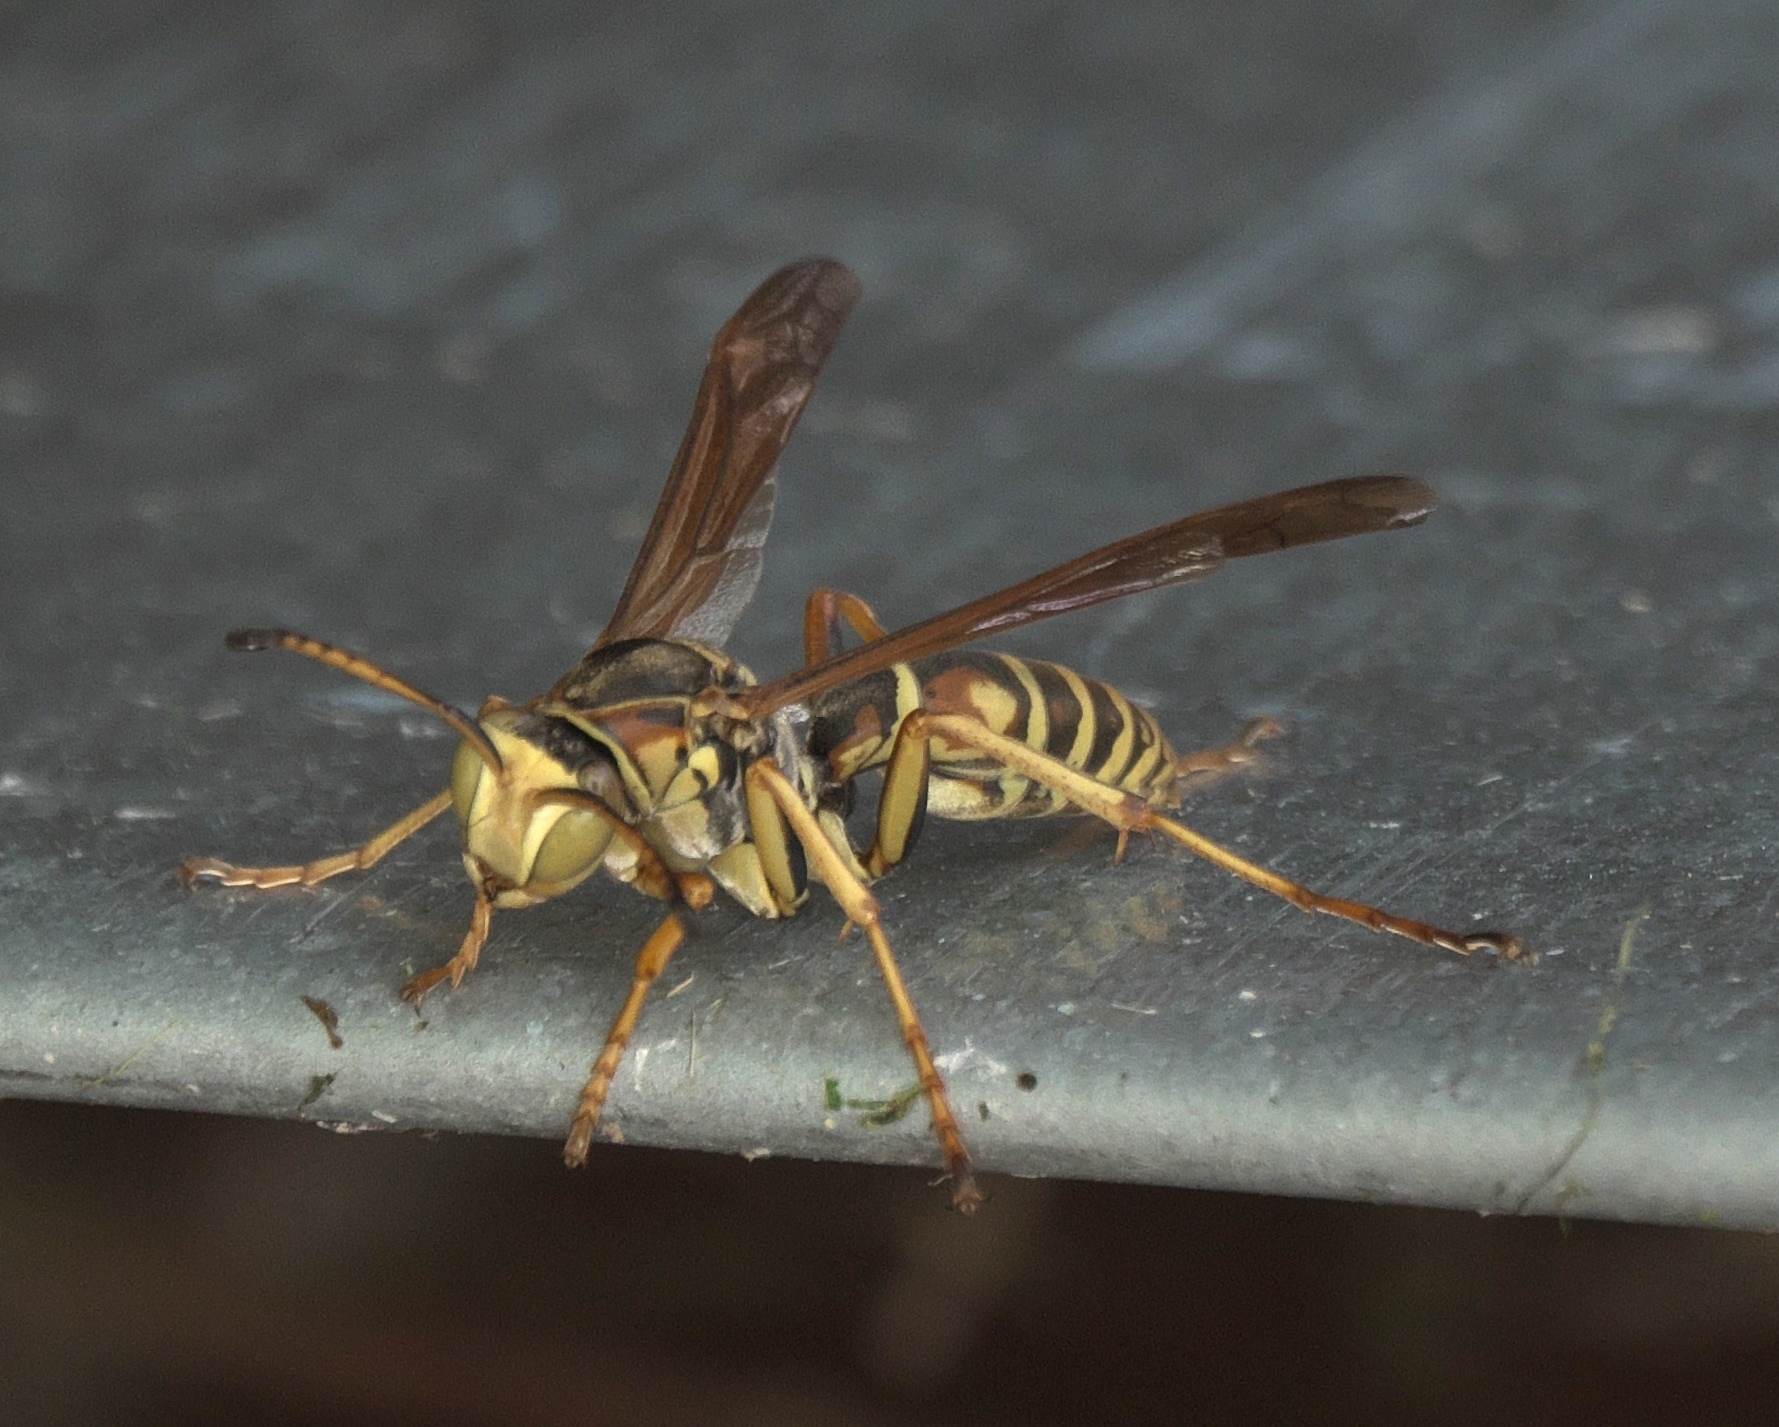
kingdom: Animalia
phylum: Arthropoda
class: Insecta
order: Hymenoptera
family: Eumenidae
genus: Polistes
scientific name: Polistes fuscatus
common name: Dark paper wasp
